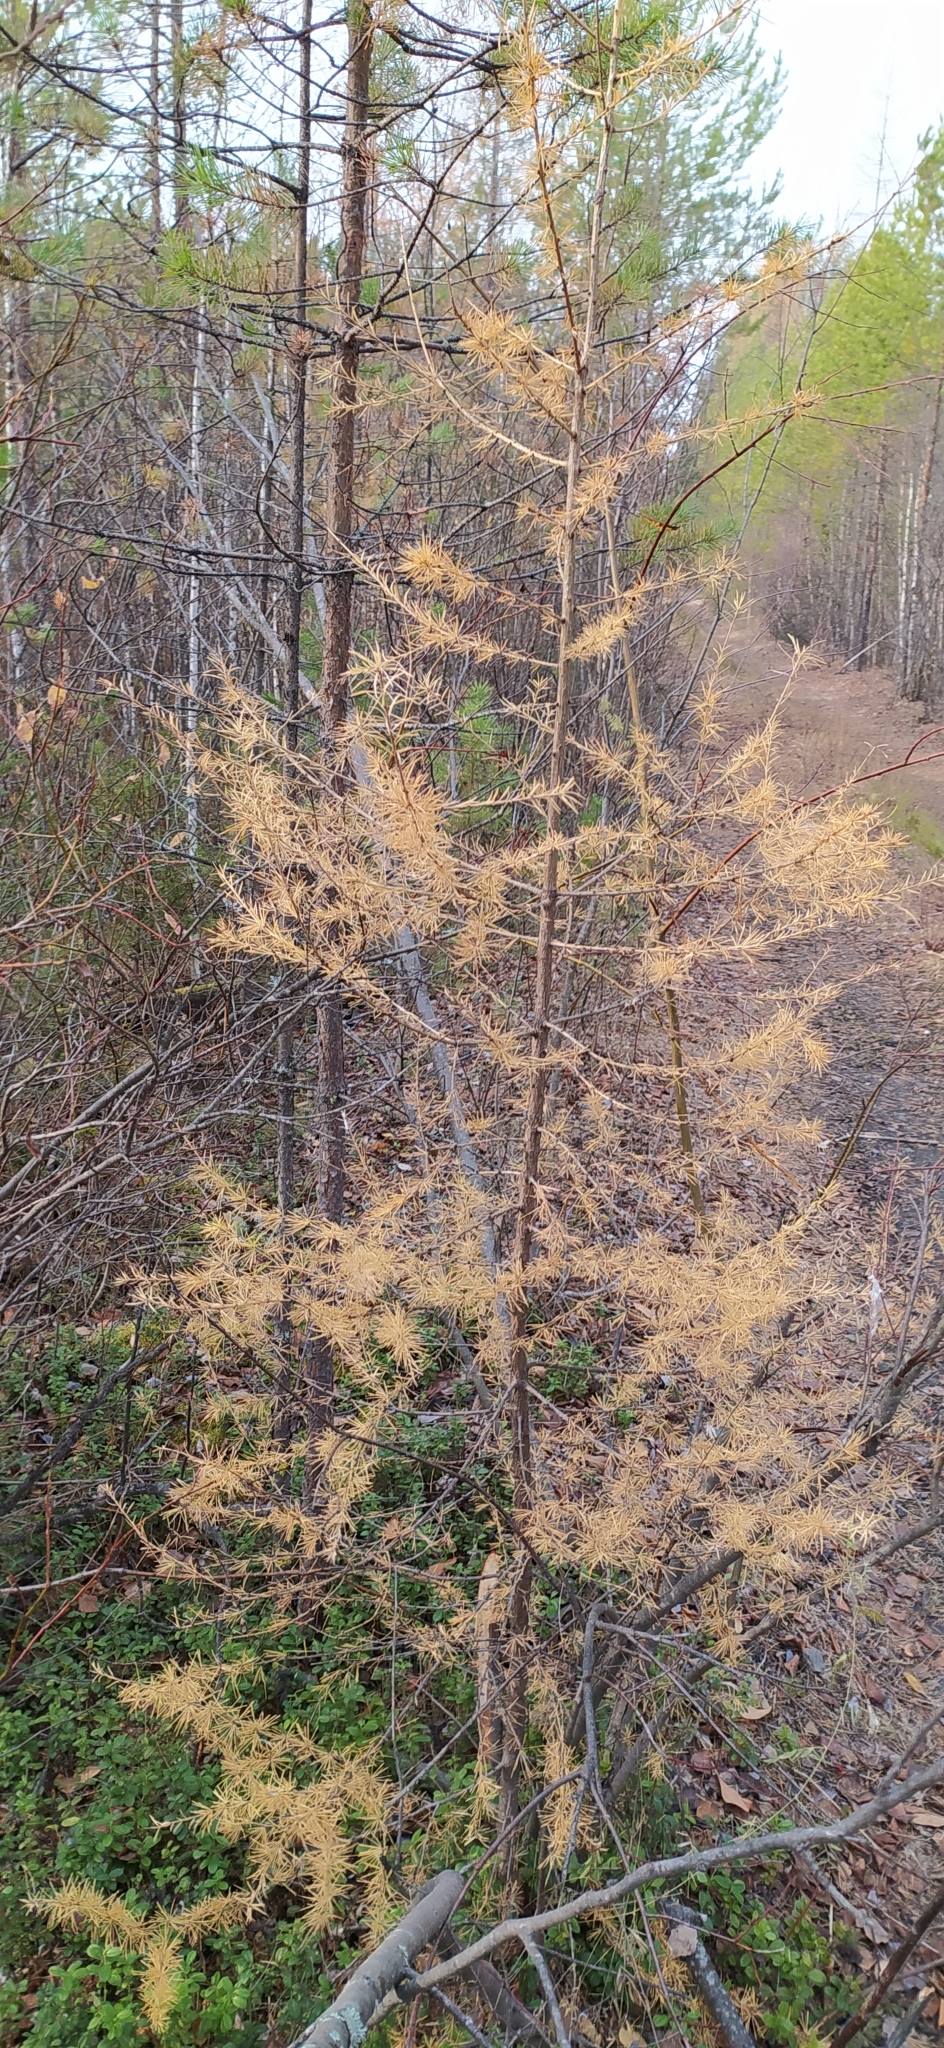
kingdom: Plantae
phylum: Tracheophyta
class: Pinopsida
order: Pinales
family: Pinaceae
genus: Larix
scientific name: Larix sibirica
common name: Siberian larch
